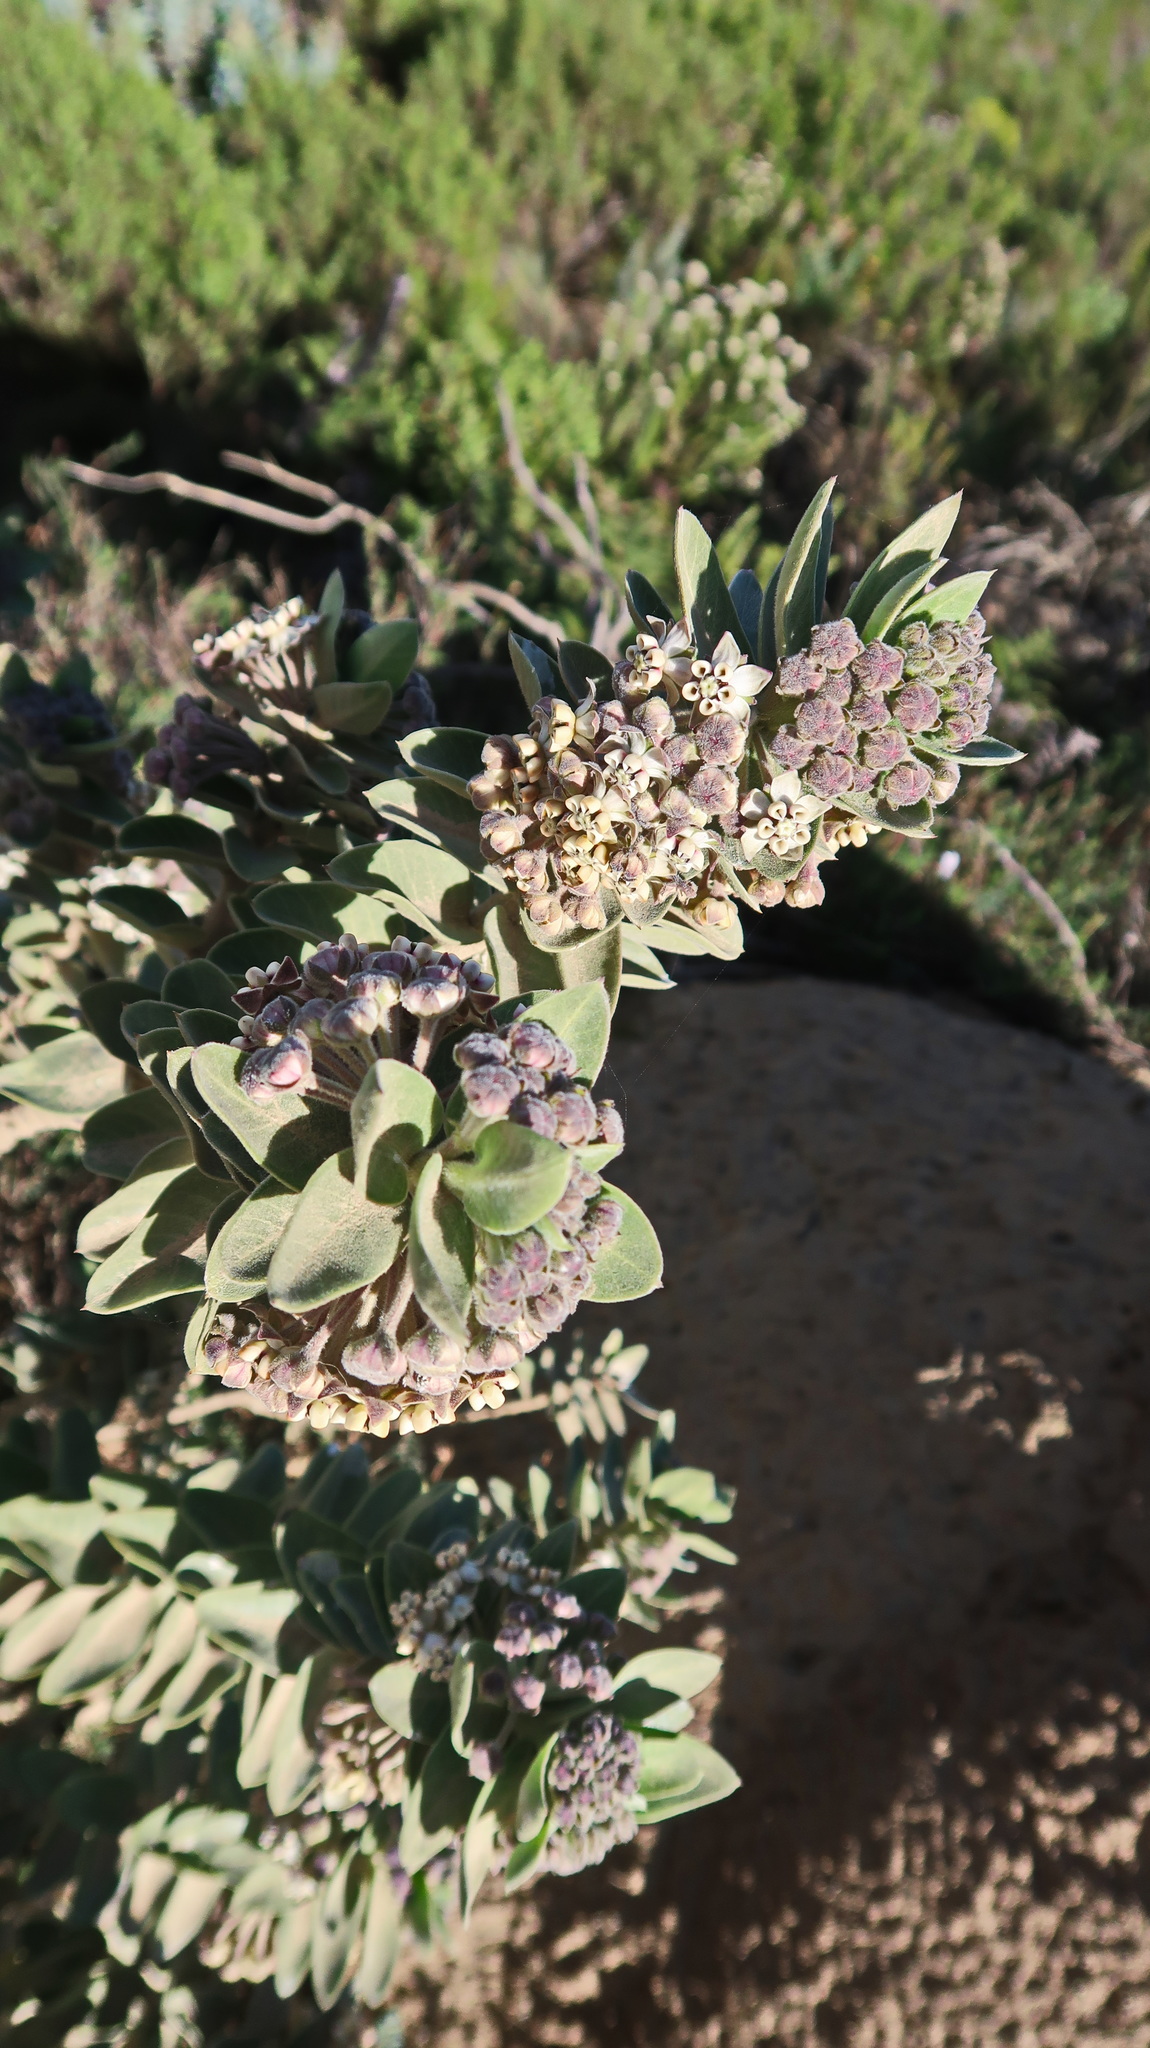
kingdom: Plantae
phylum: Tracheophyta
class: Magnoliopsida
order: Gentianales
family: Apocynaceae
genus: Gomphocarpus
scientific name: Gomphocarpus cancellatus
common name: Wild cotton
